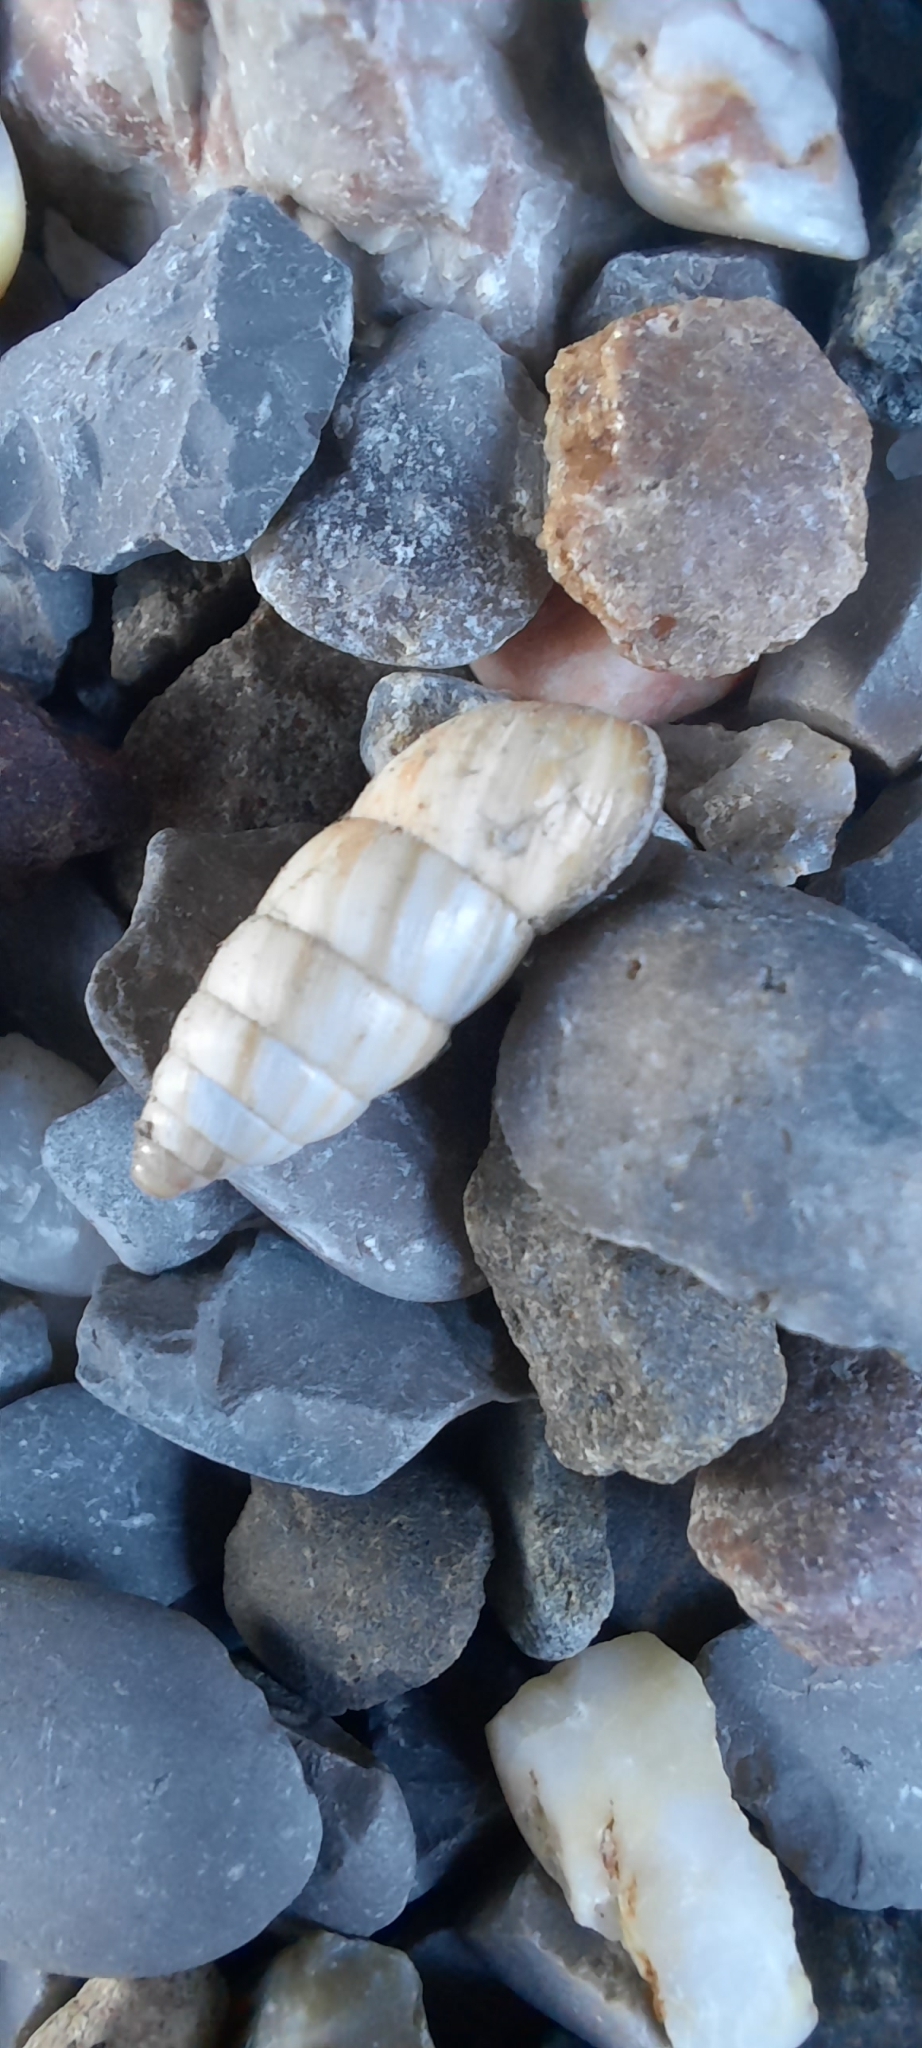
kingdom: Animalia
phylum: Mollusca
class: Gastropoda
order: Stylommatophora
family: Enidae
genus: Brephulopsis
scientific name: Brephulopsis cylindrica
